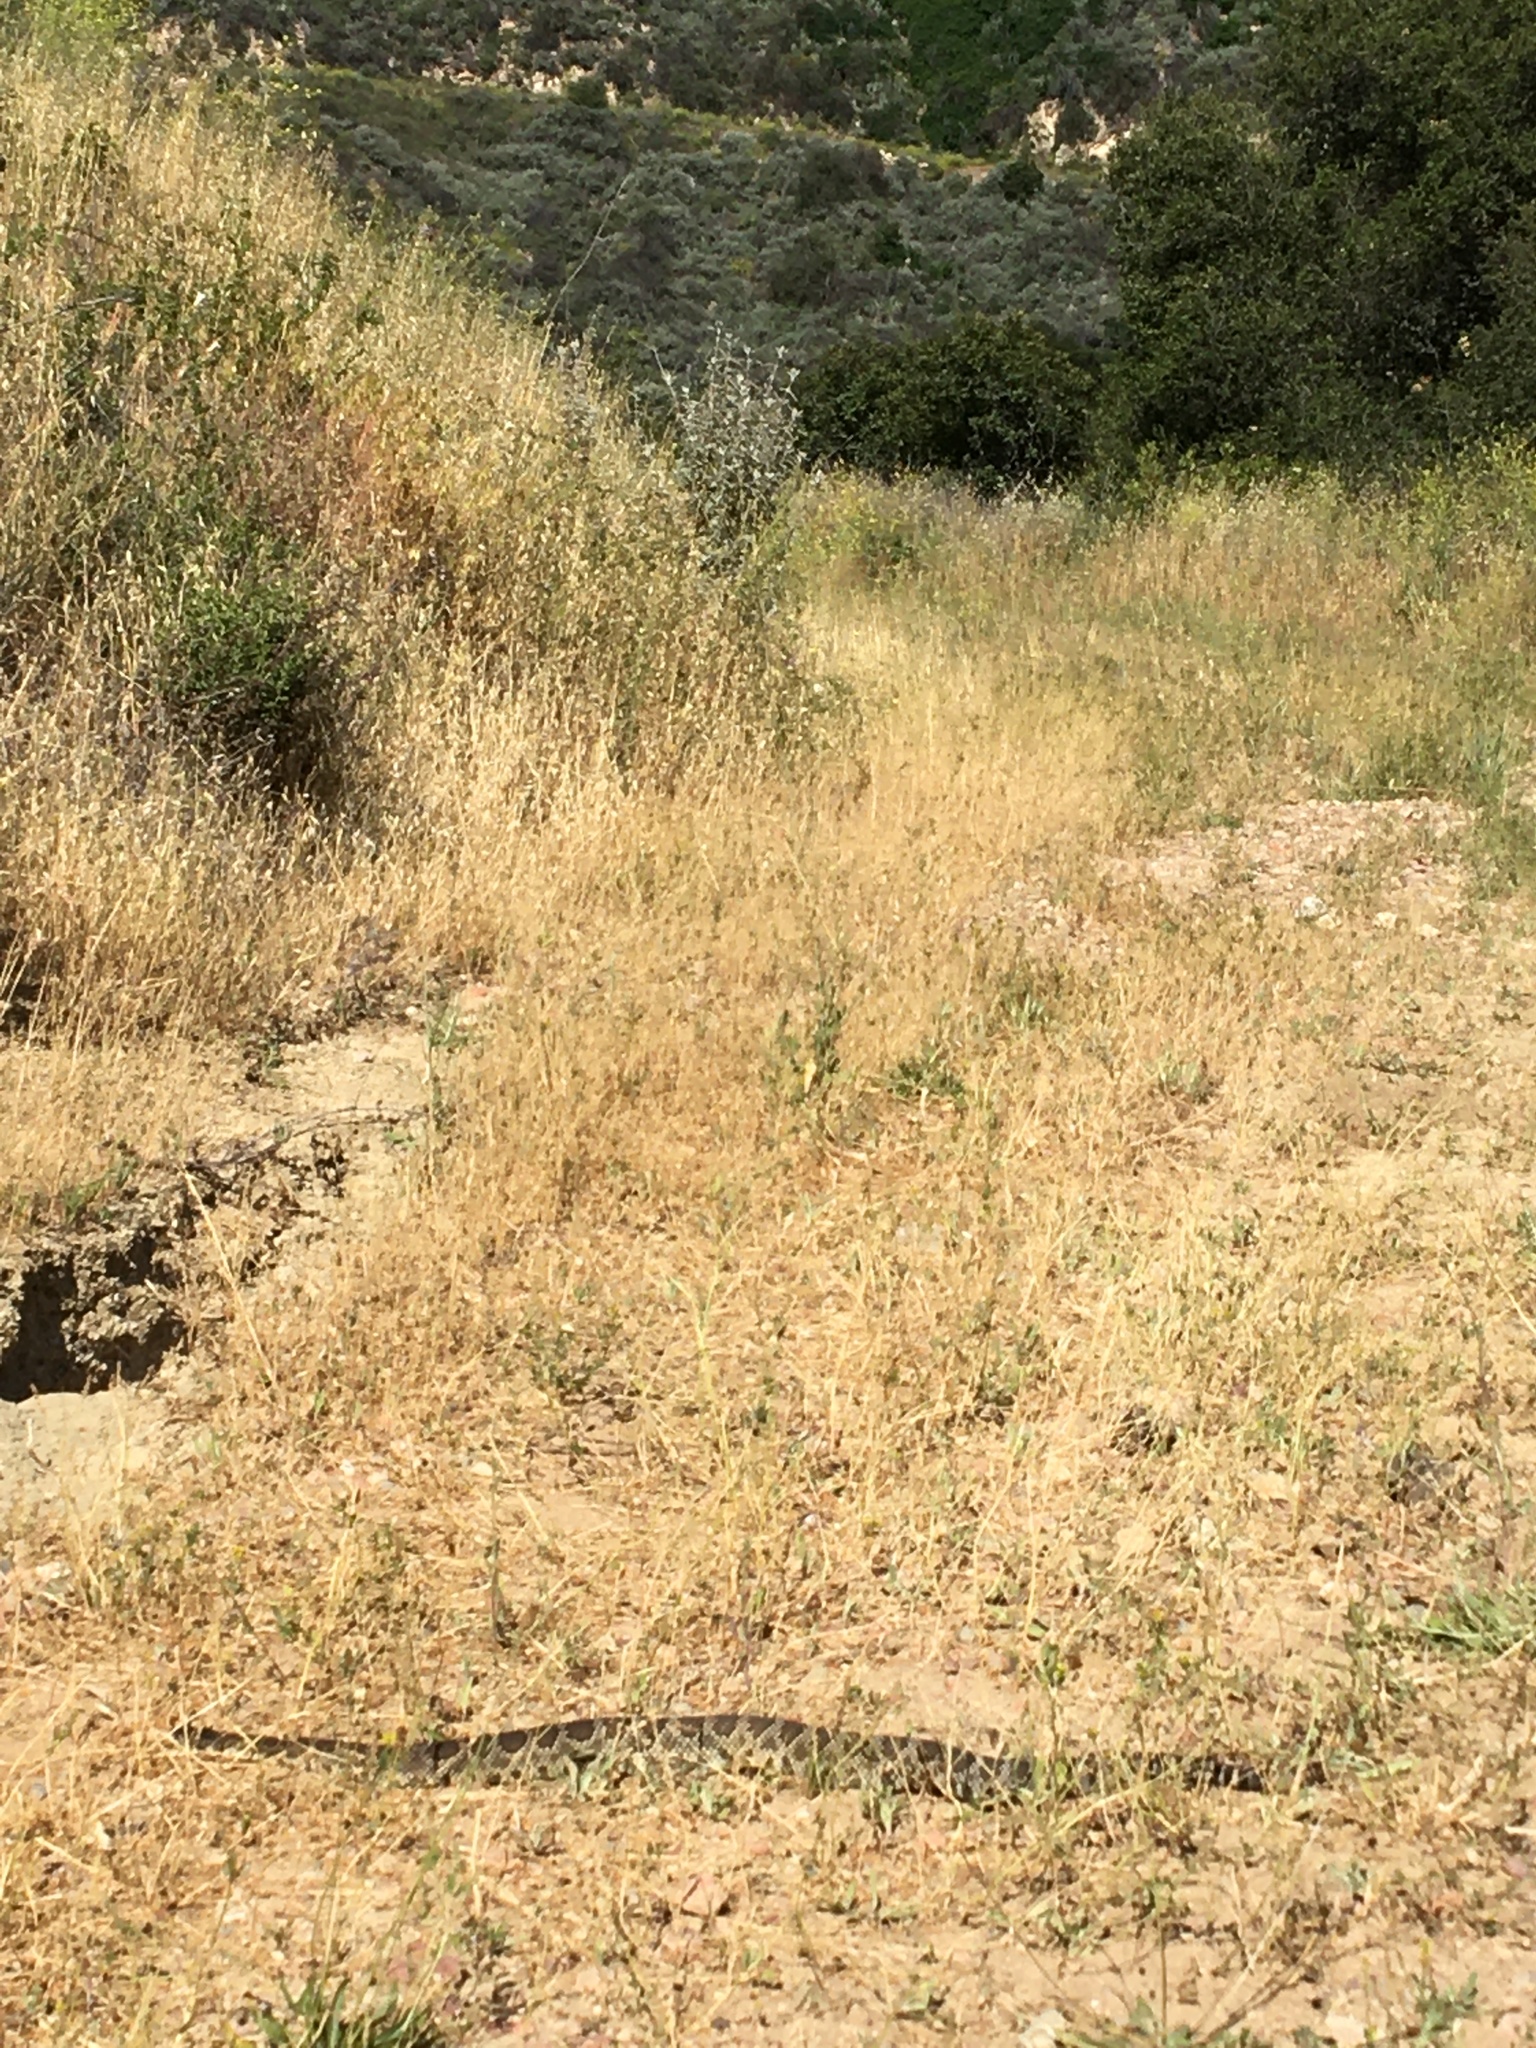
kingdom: Animalia
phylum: Chordata
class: Squamata
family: Viperidae
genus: Crotalus
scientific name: Crotalus oreganus
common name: Abyssus
